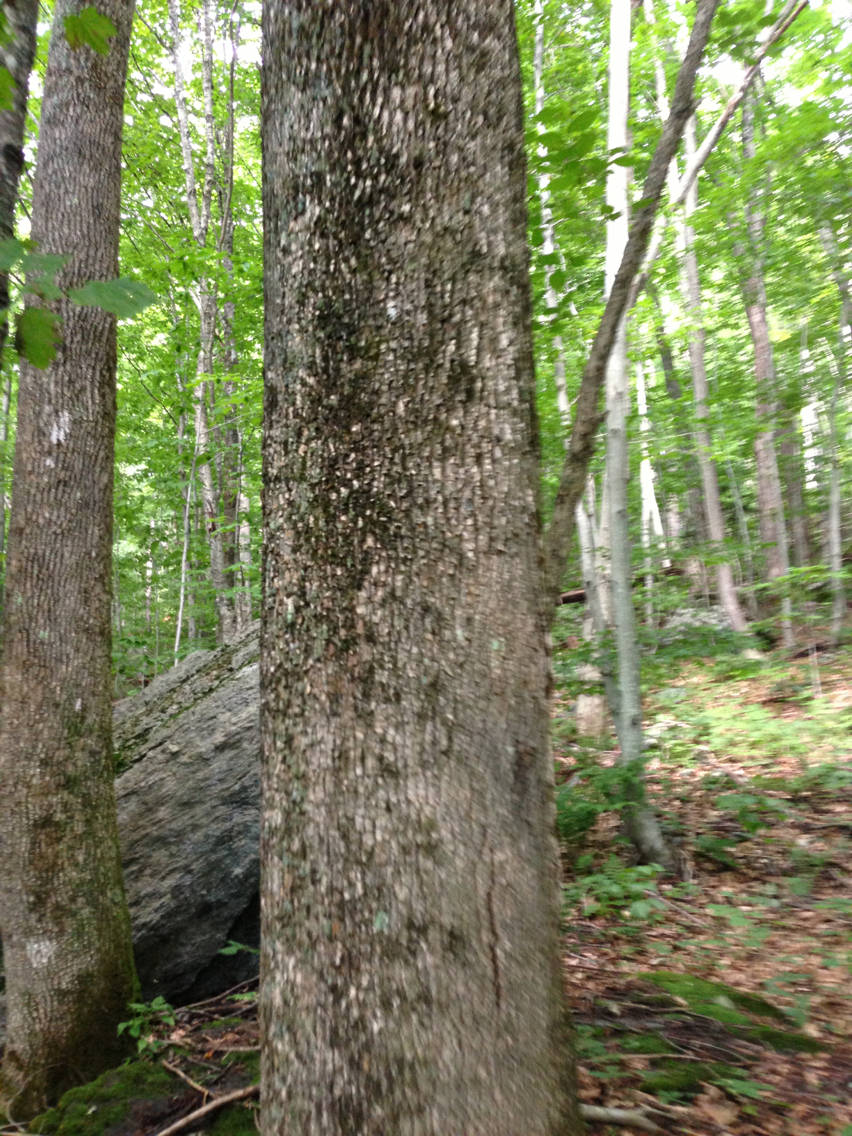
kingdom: Plantae
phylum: Tracheophyta
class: Magnoliopsida
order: Lamiales
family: Oleaceae
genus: Fraxinus
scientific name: Fraxinus americana
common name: White ash
